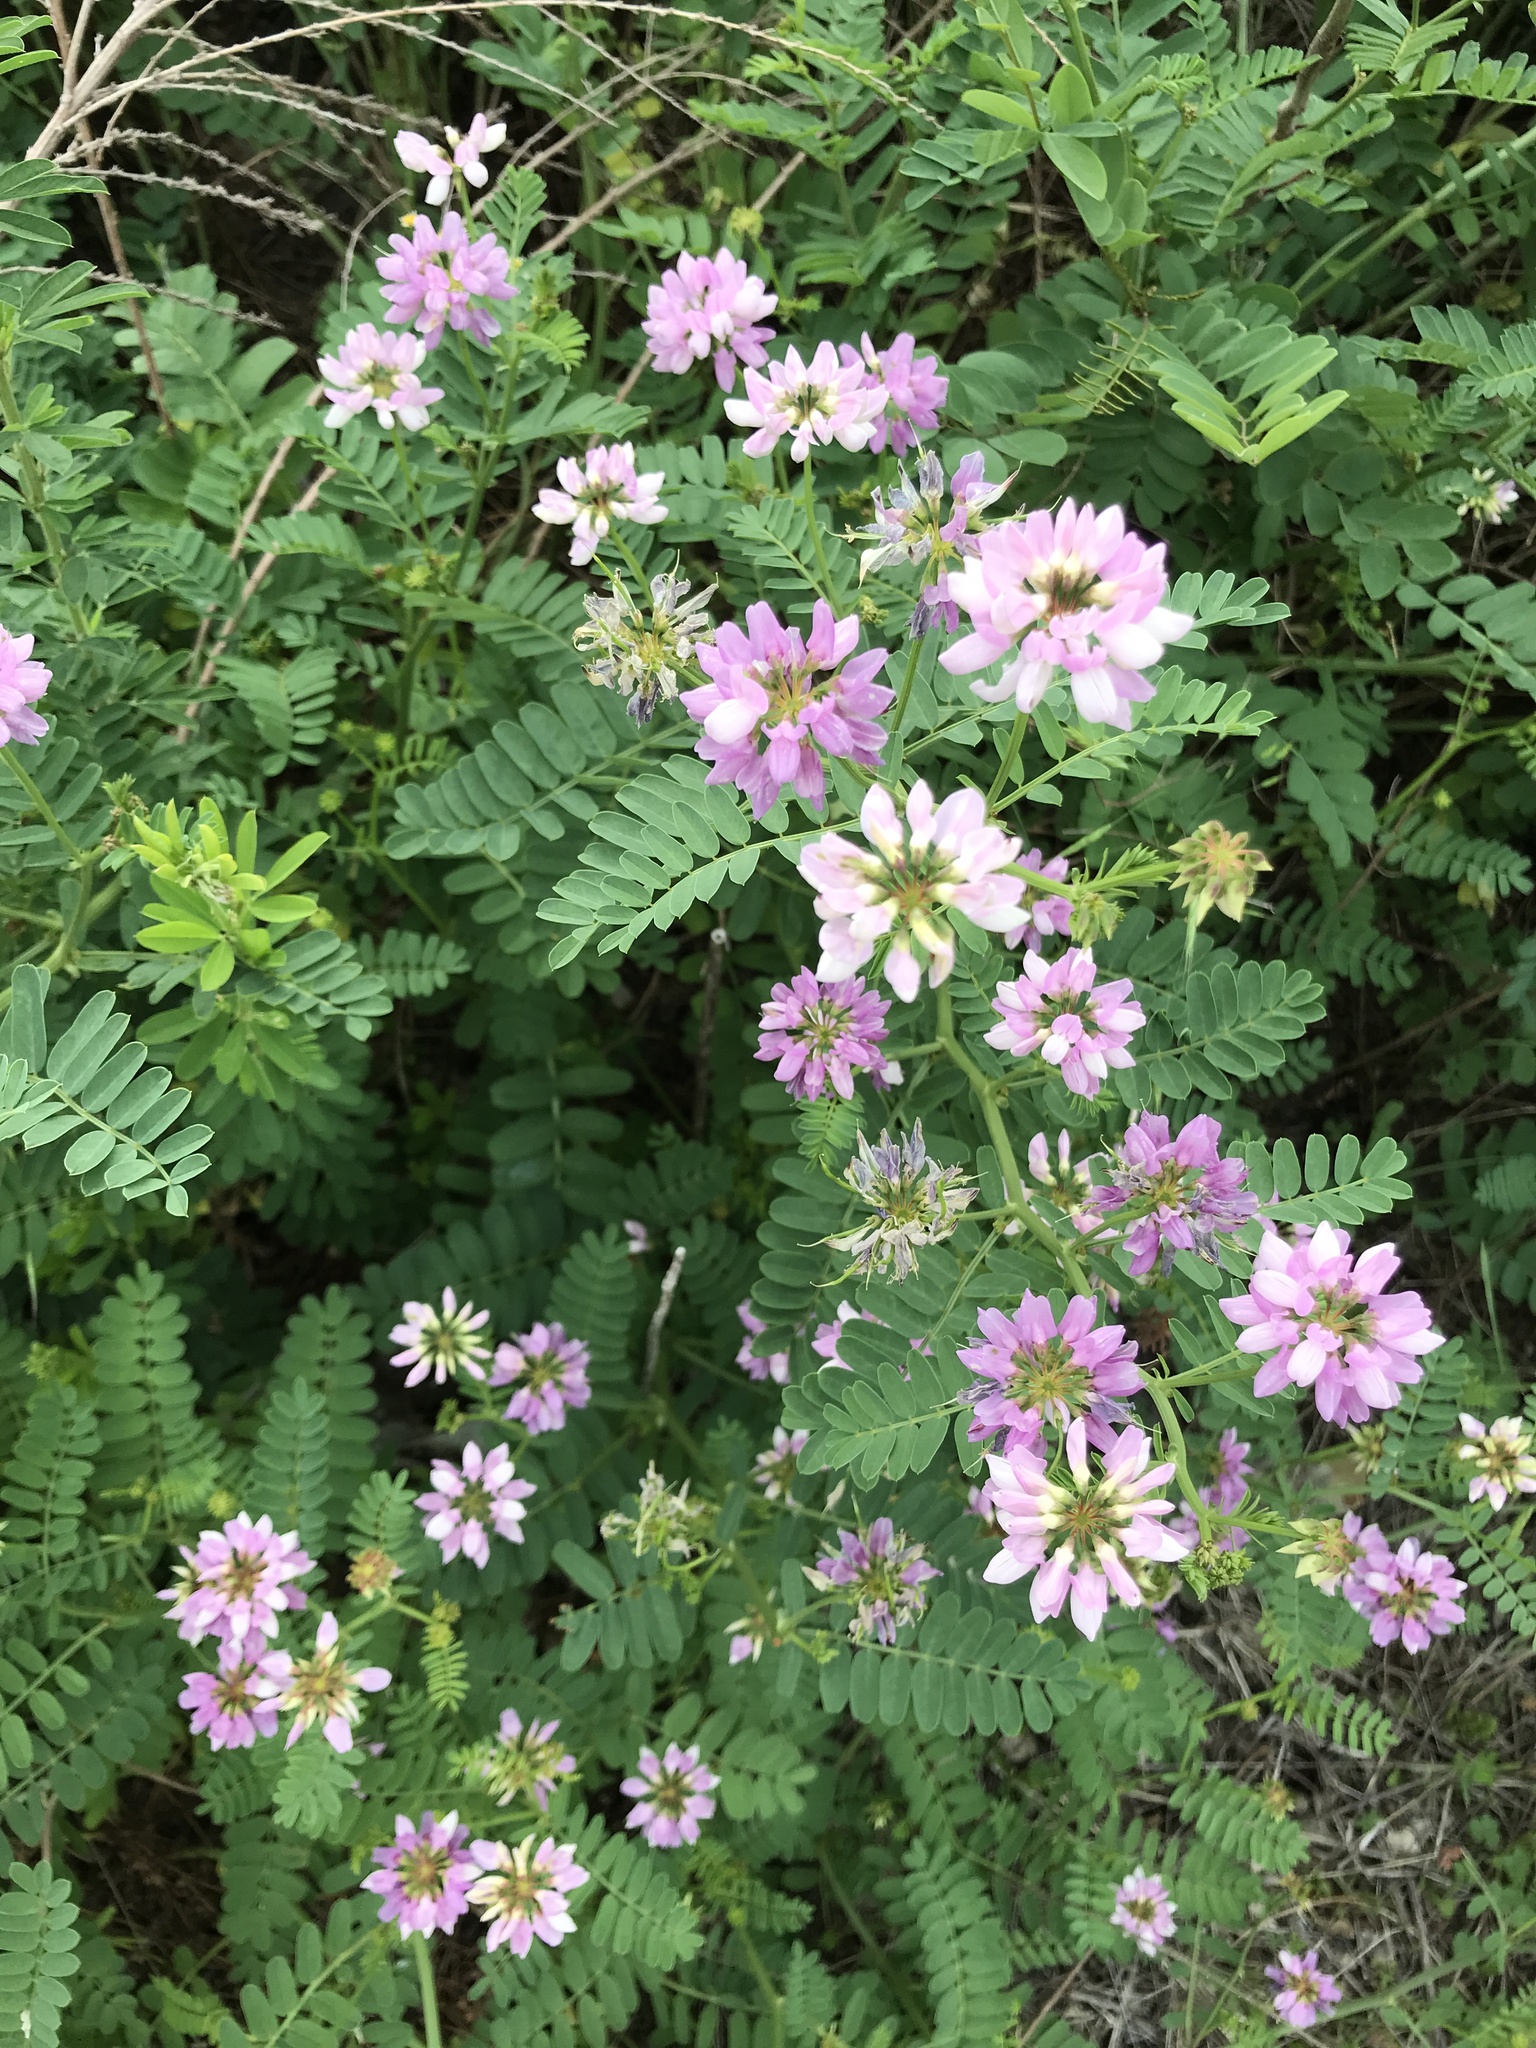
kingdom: Plantae
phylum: Tracheophyta
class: Magnoliopsida
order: Fabales
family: Fabaceae
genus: Coronilla
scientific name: Coronilla varia
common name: Crownvetch
